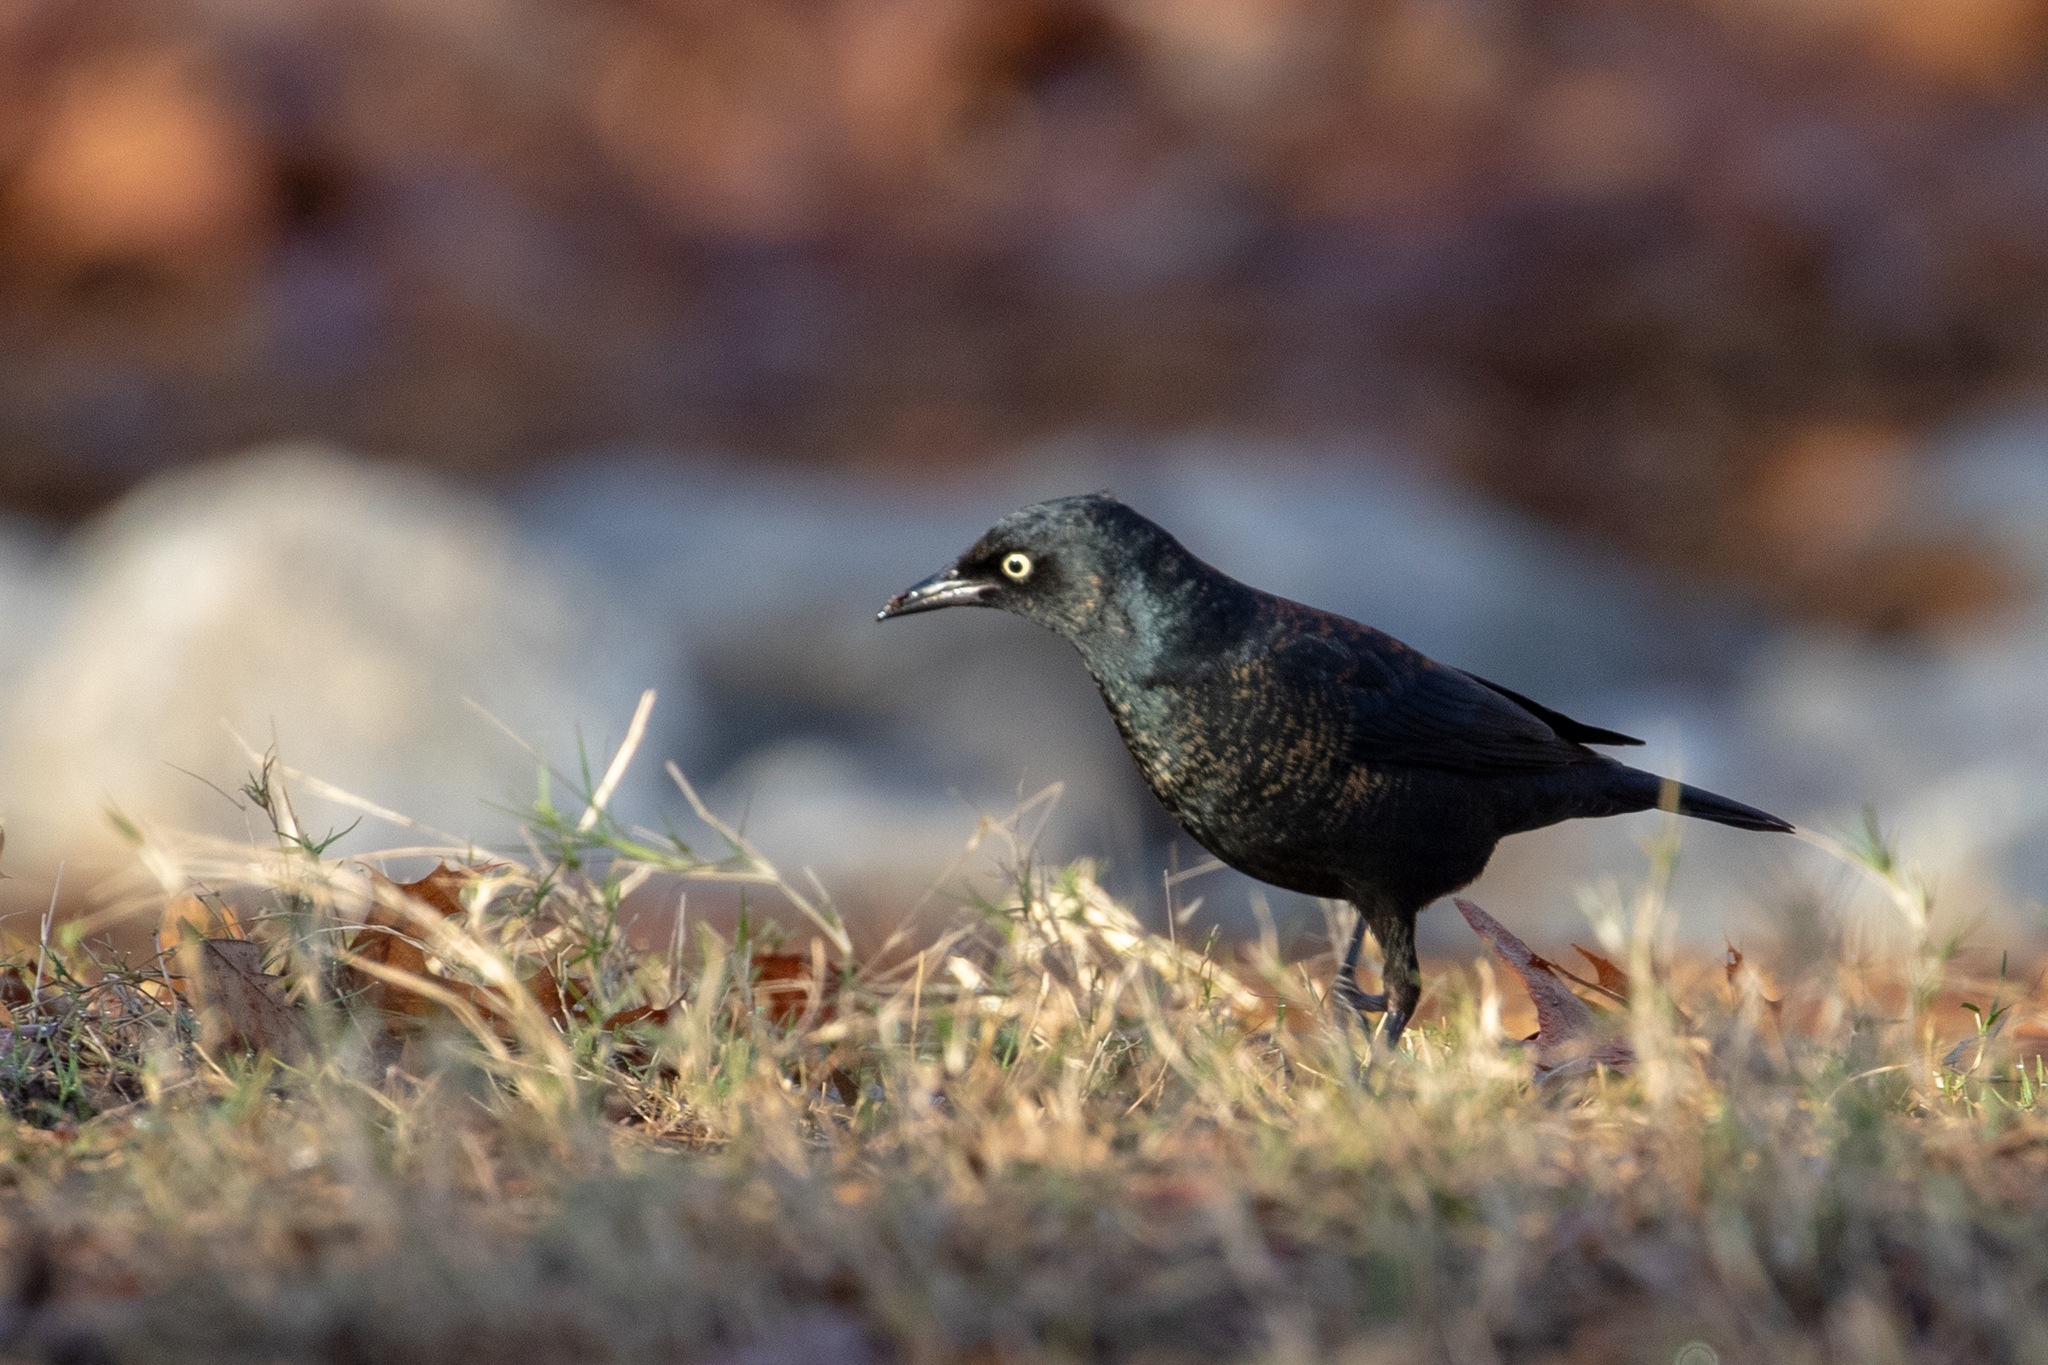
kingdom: Animalia
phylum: Chordata
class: Aves
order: Passeriformes
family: Icteridae
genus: Euphagus
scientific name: Euphagus carolinus
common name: Rusty blackbird
